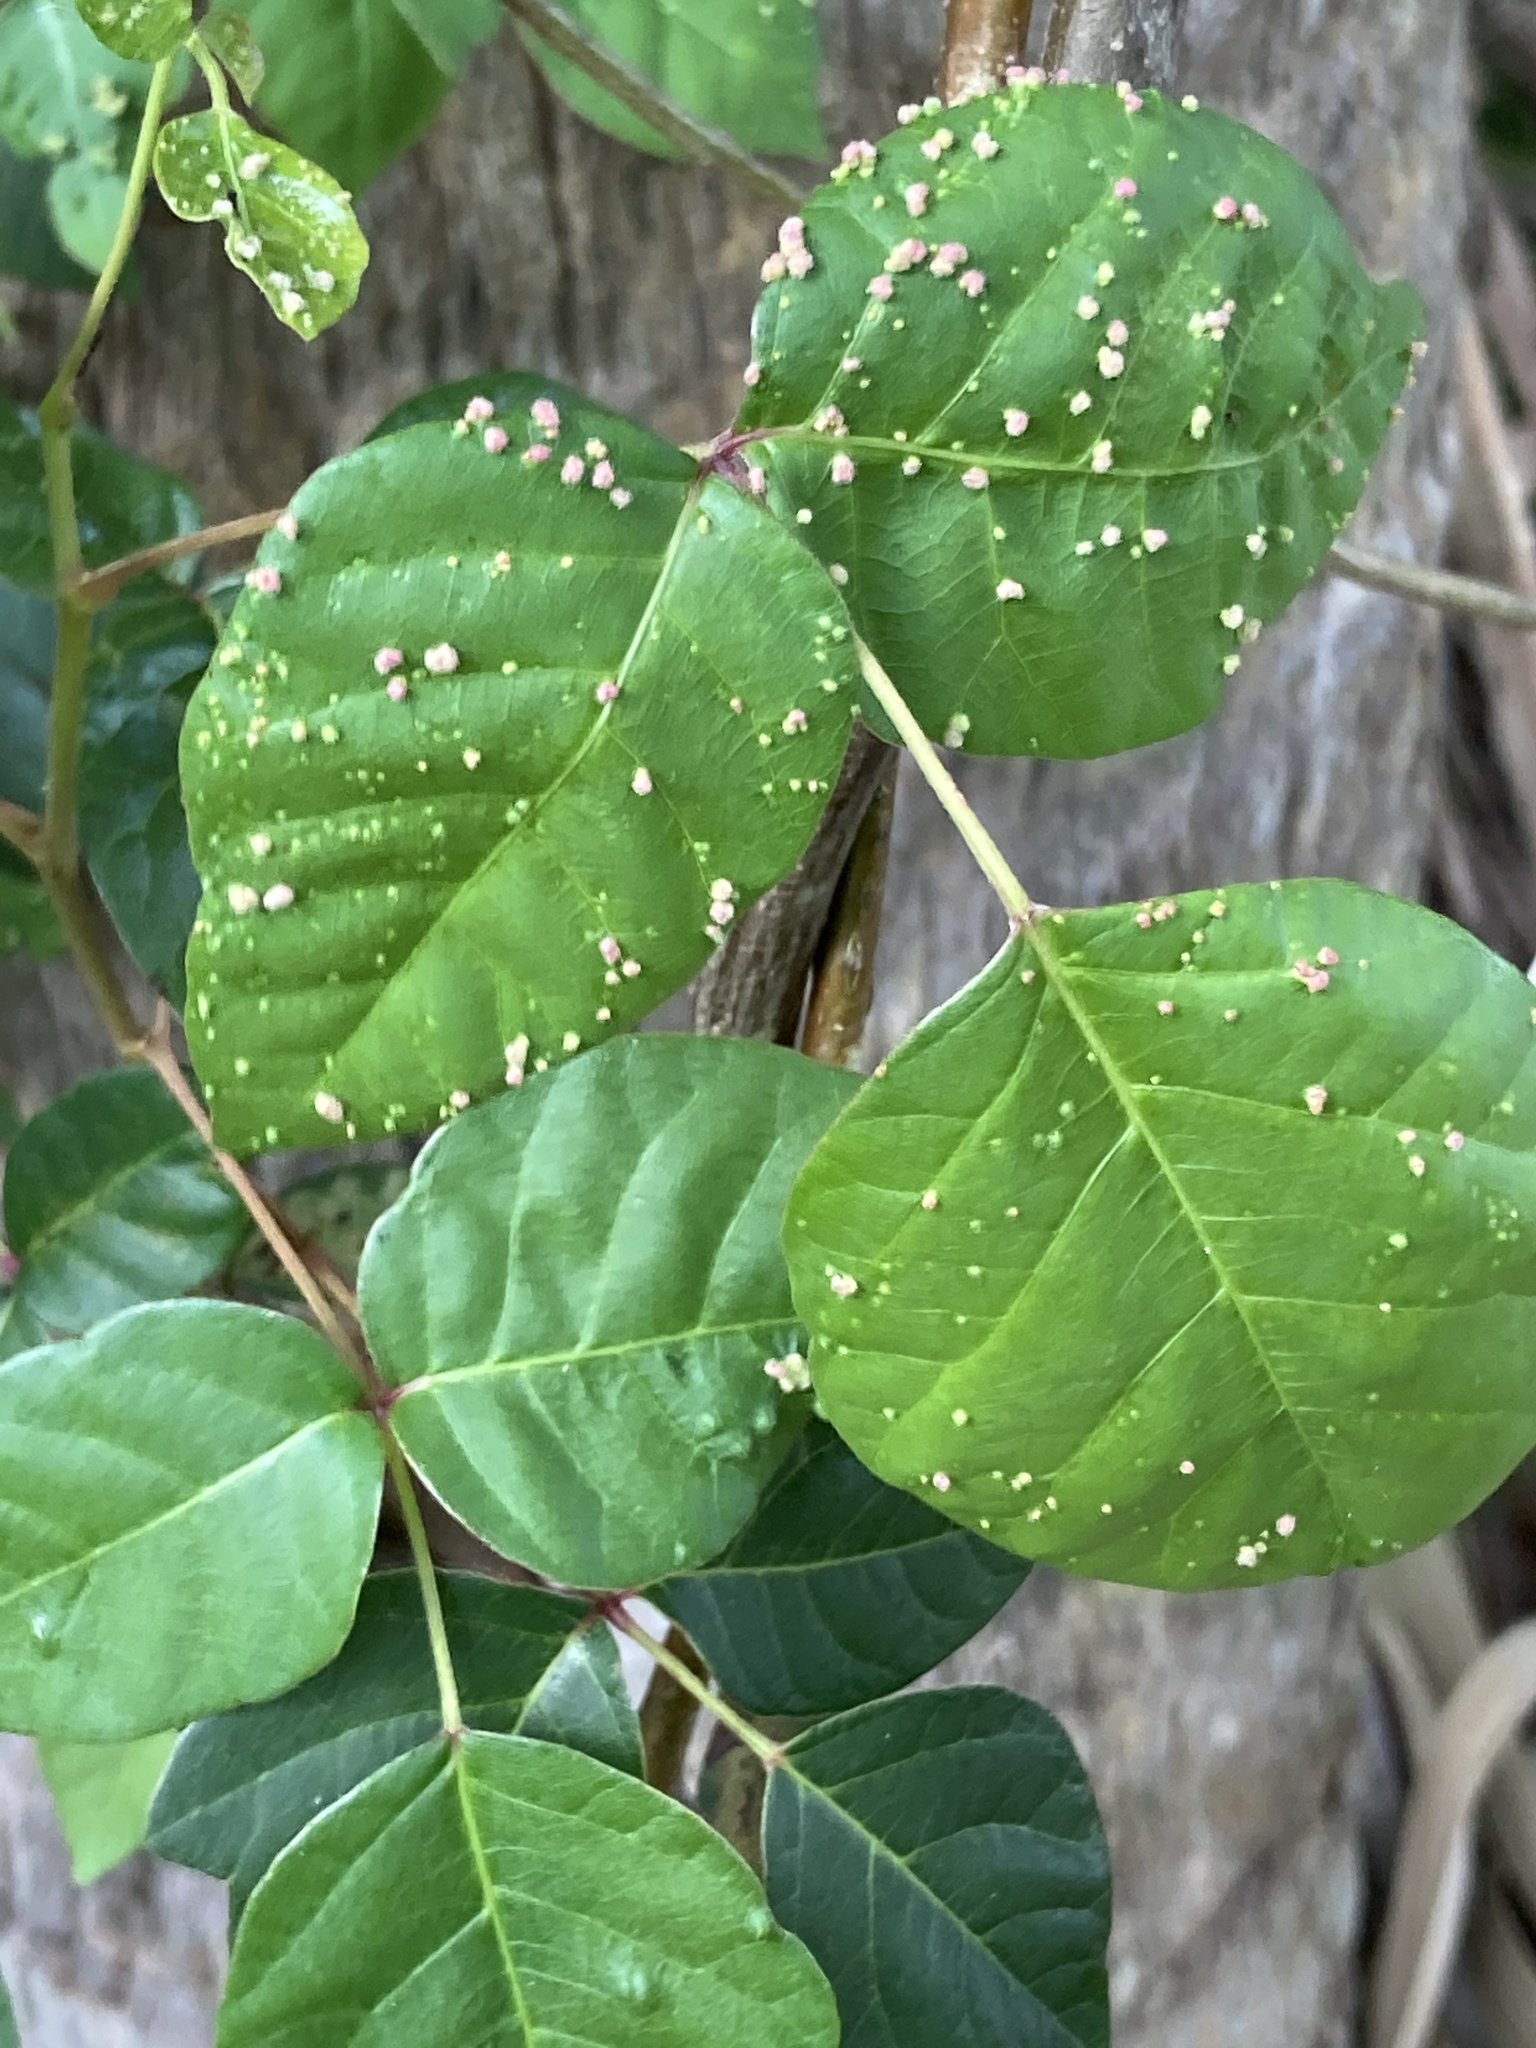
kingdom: Animalia
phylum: Arthropoda
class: Arachnida
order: Trombidiformes
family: Eriophyidae
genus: Aculops
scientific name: Aculops
